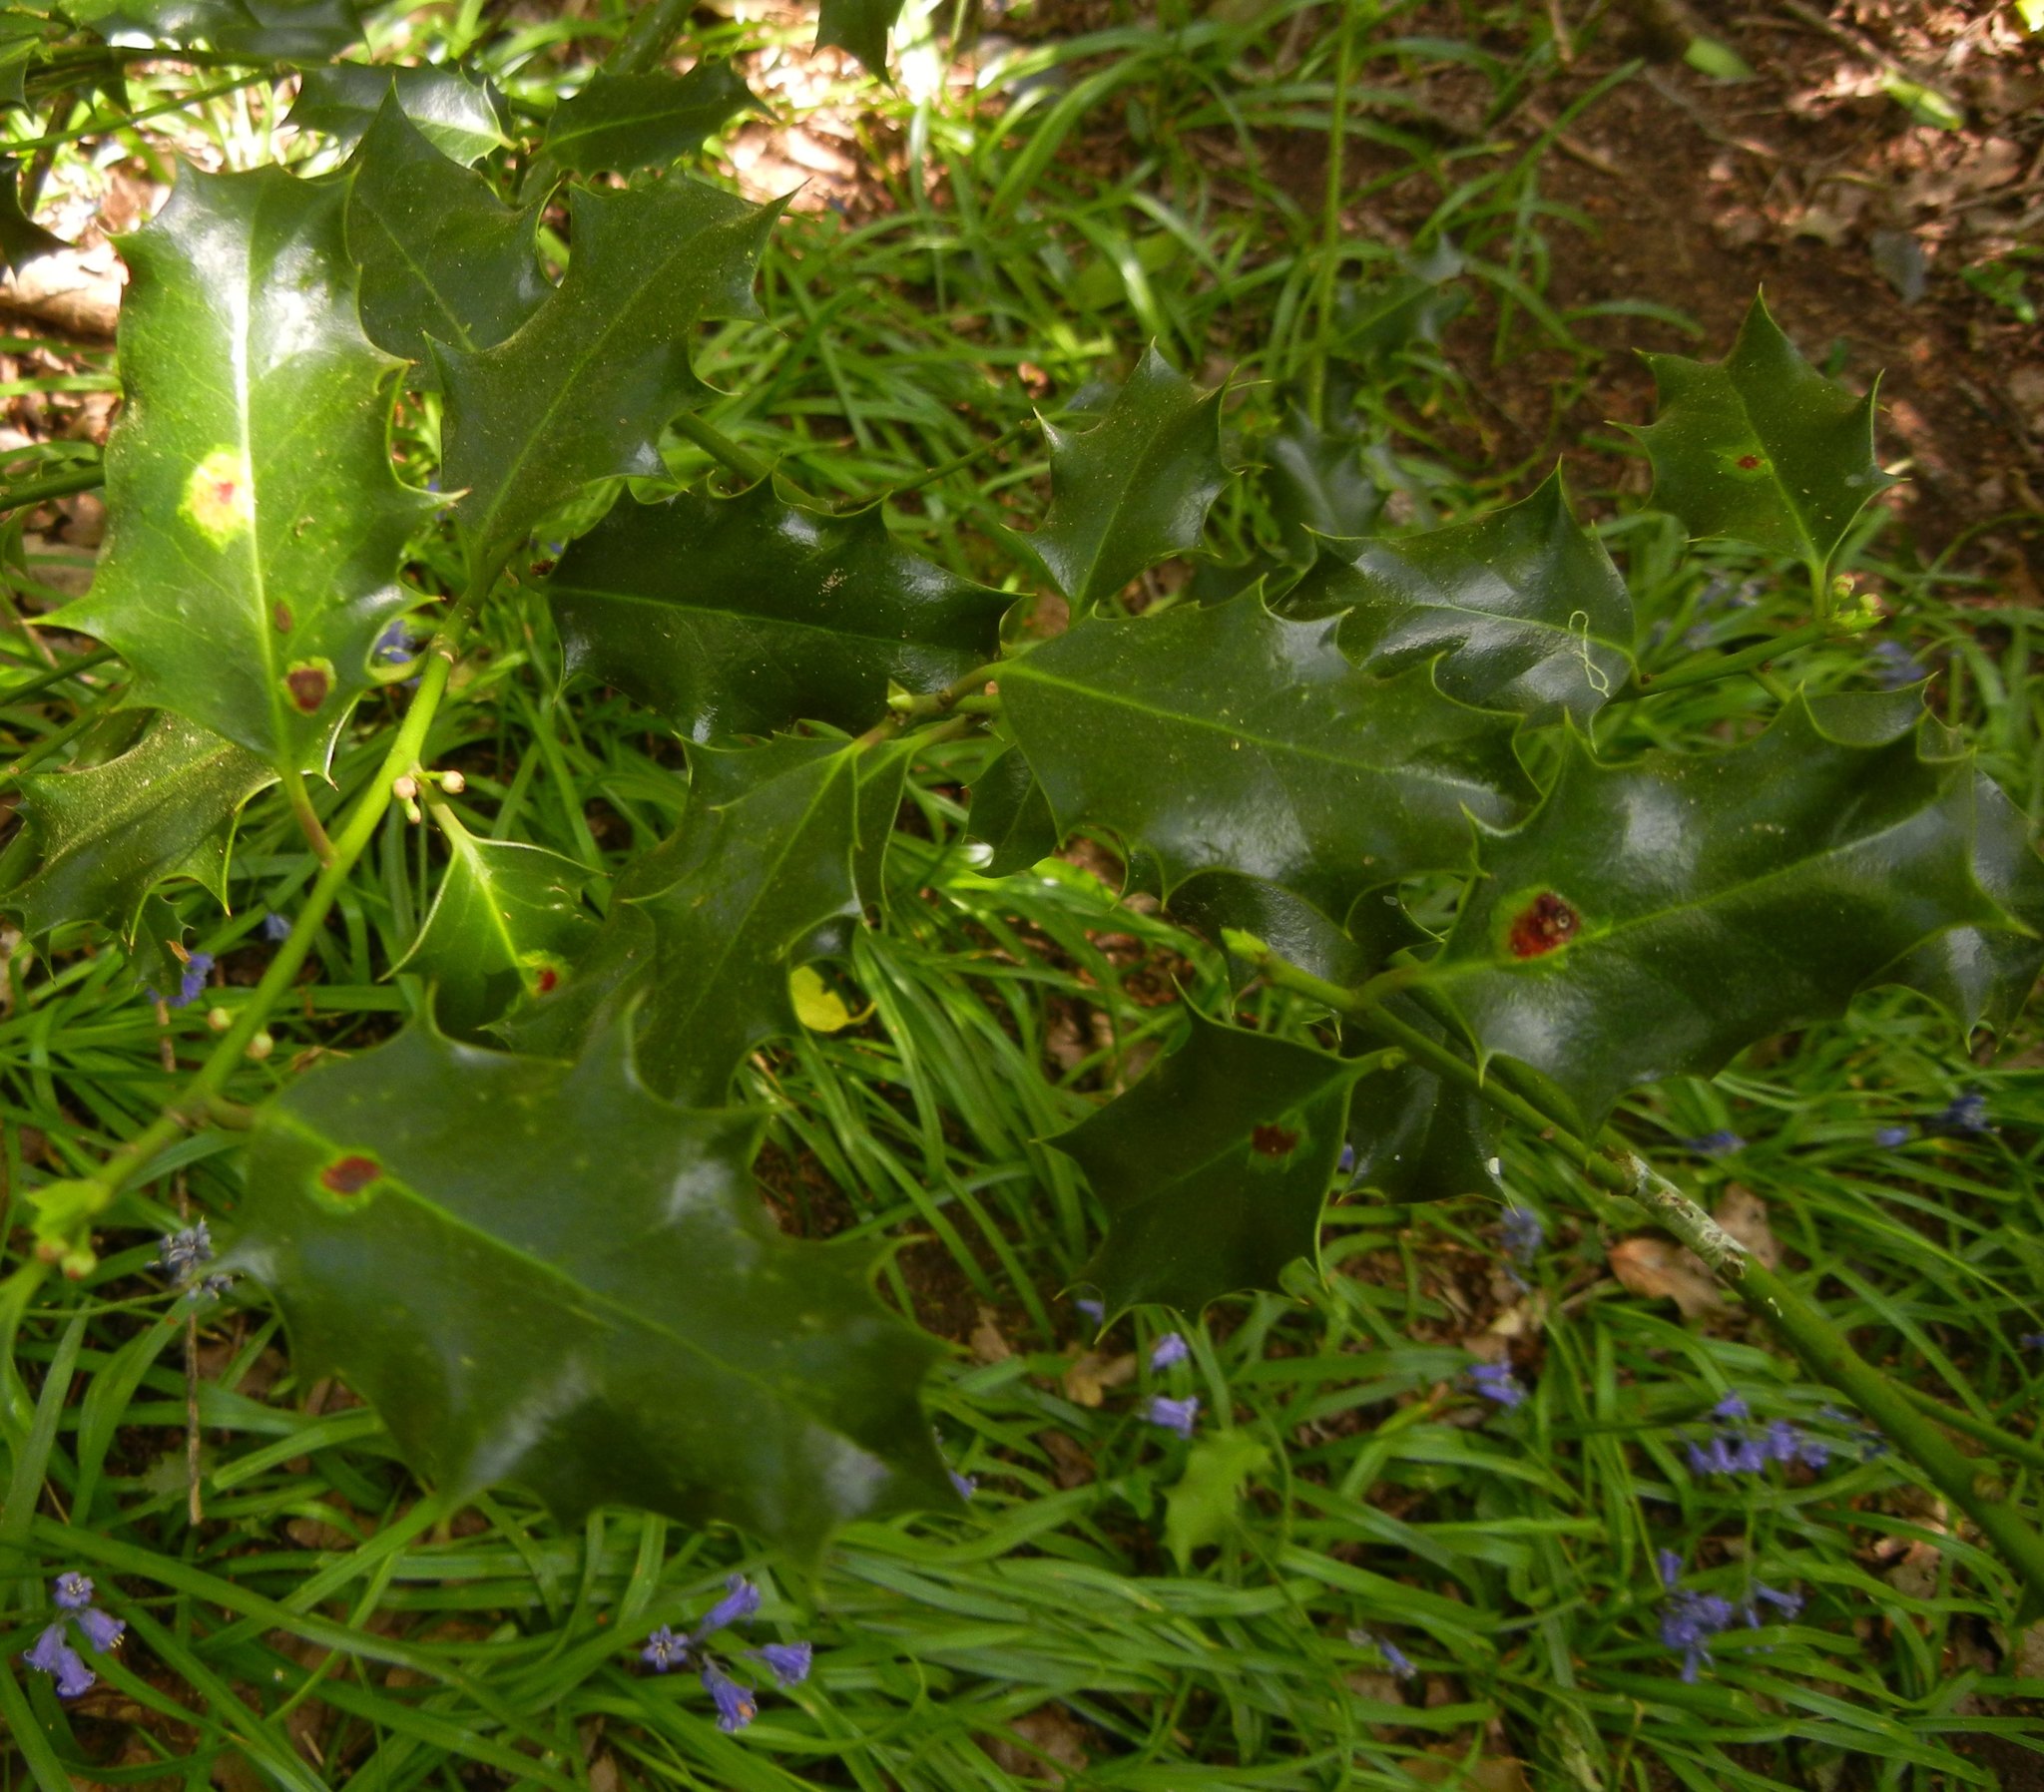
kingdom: Plantae
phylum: Tracheophyta
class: Magnoliopsida
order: Aquifoliales
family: Aquifoliaceae
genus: Ilex
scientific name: Ilex aquifolium
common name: English holly
